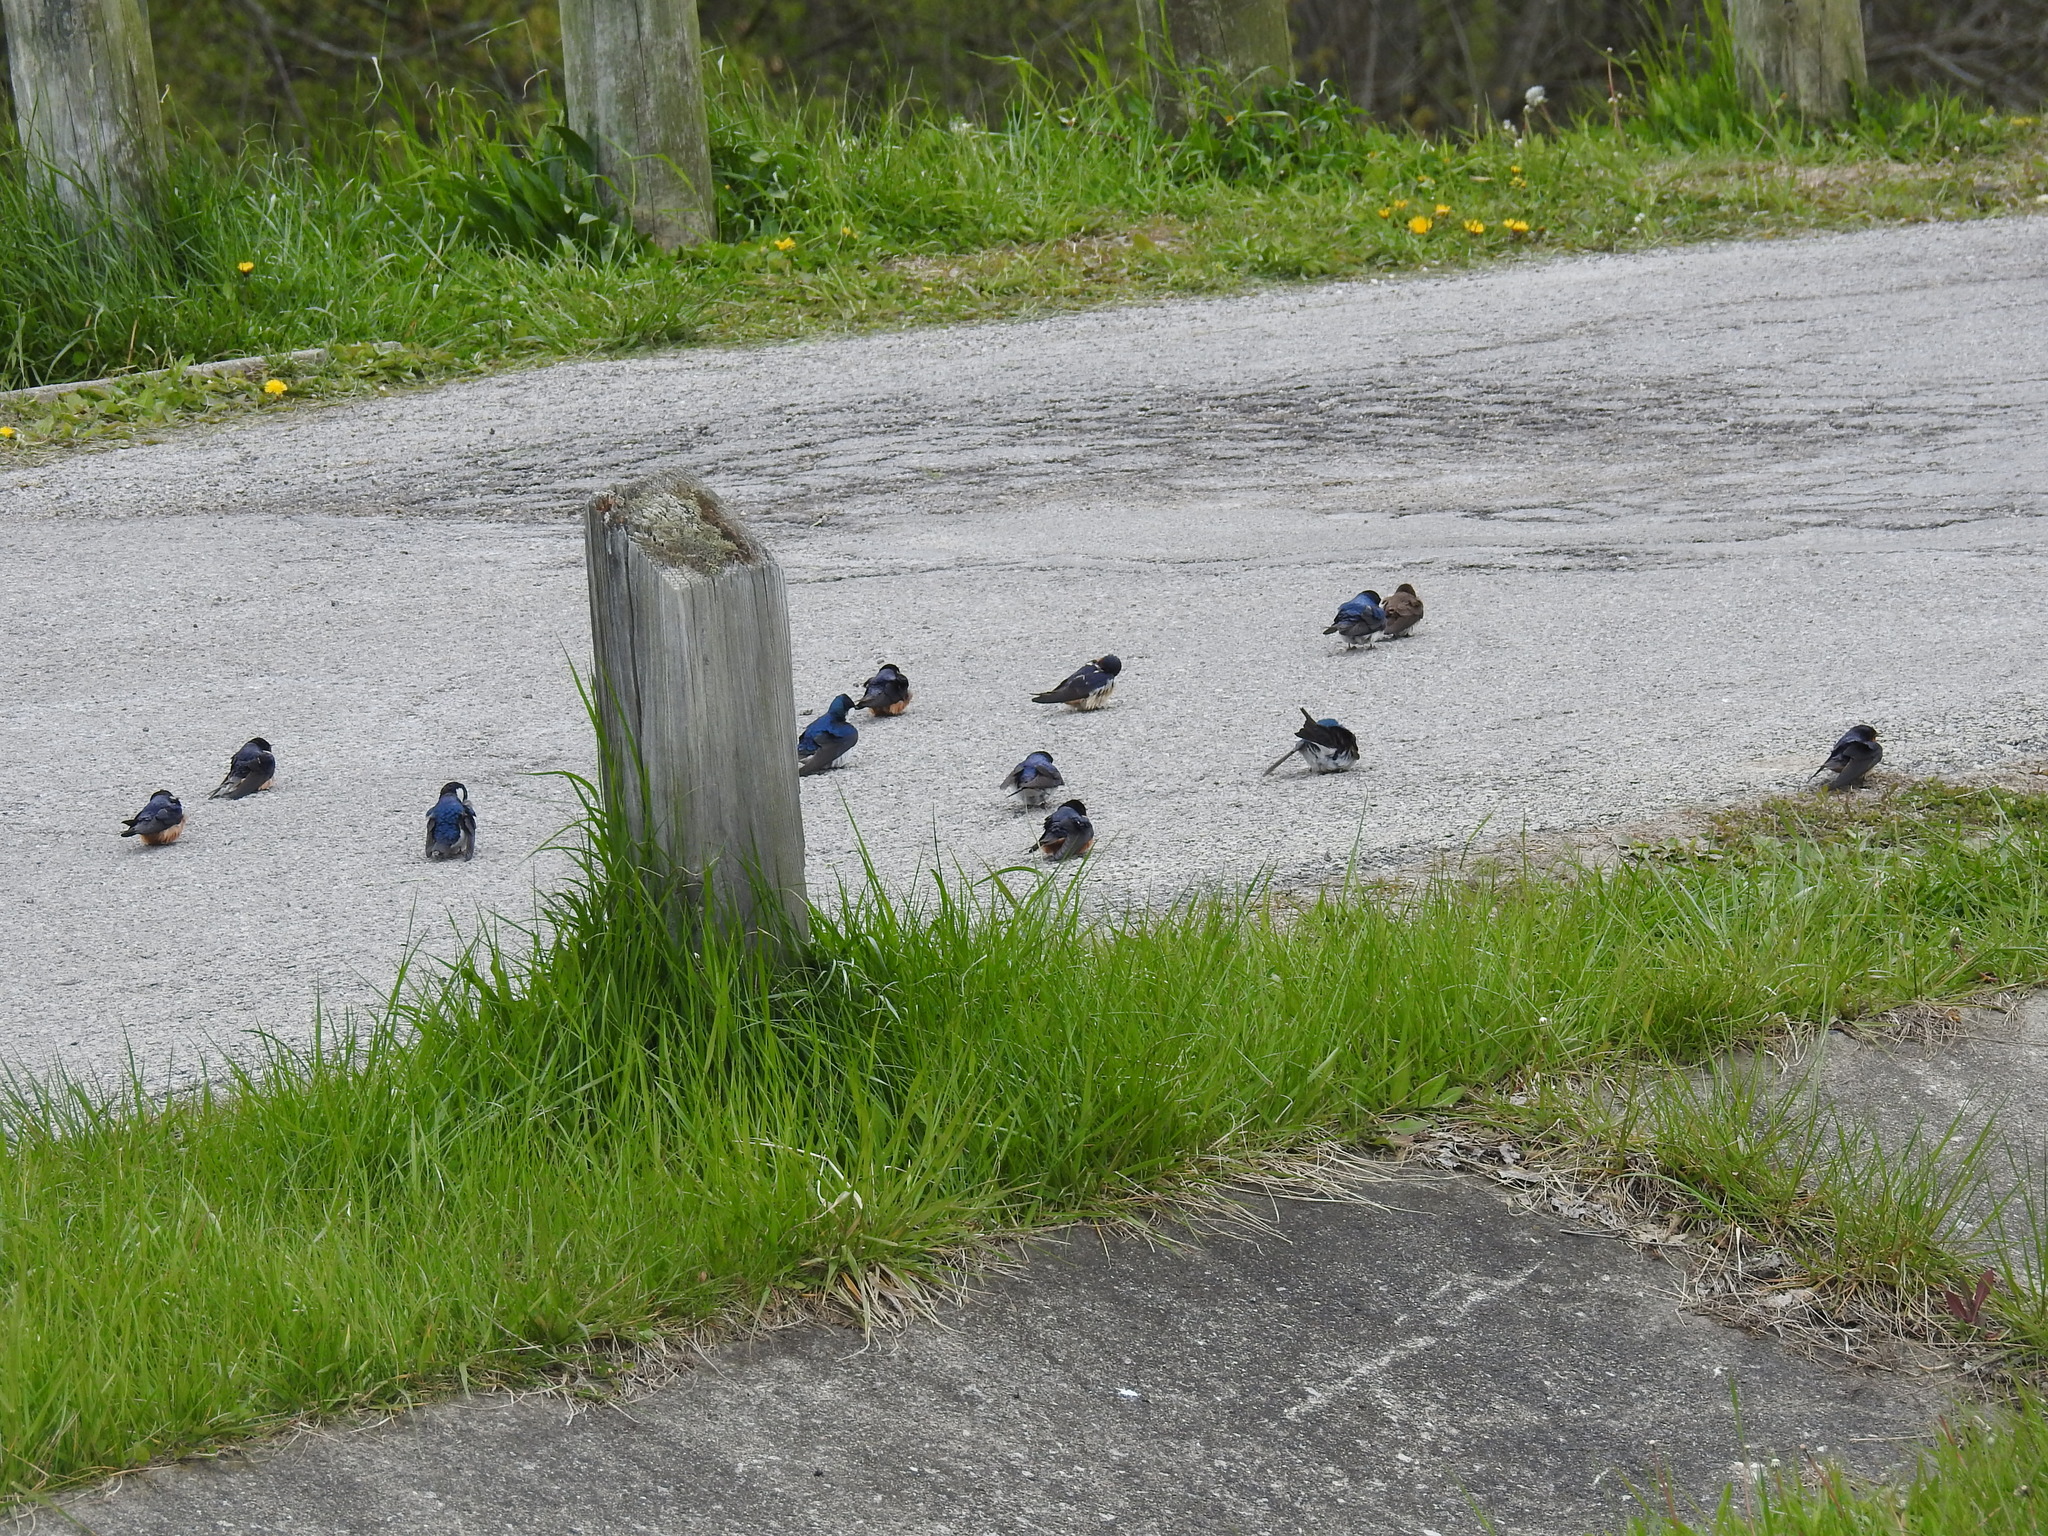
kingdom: Animalia
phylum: Chordata
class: Aves
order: Passeriformes
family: Hirundinidae
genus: Hirundo
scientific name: Hirundo rustica
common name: Barn swallow
